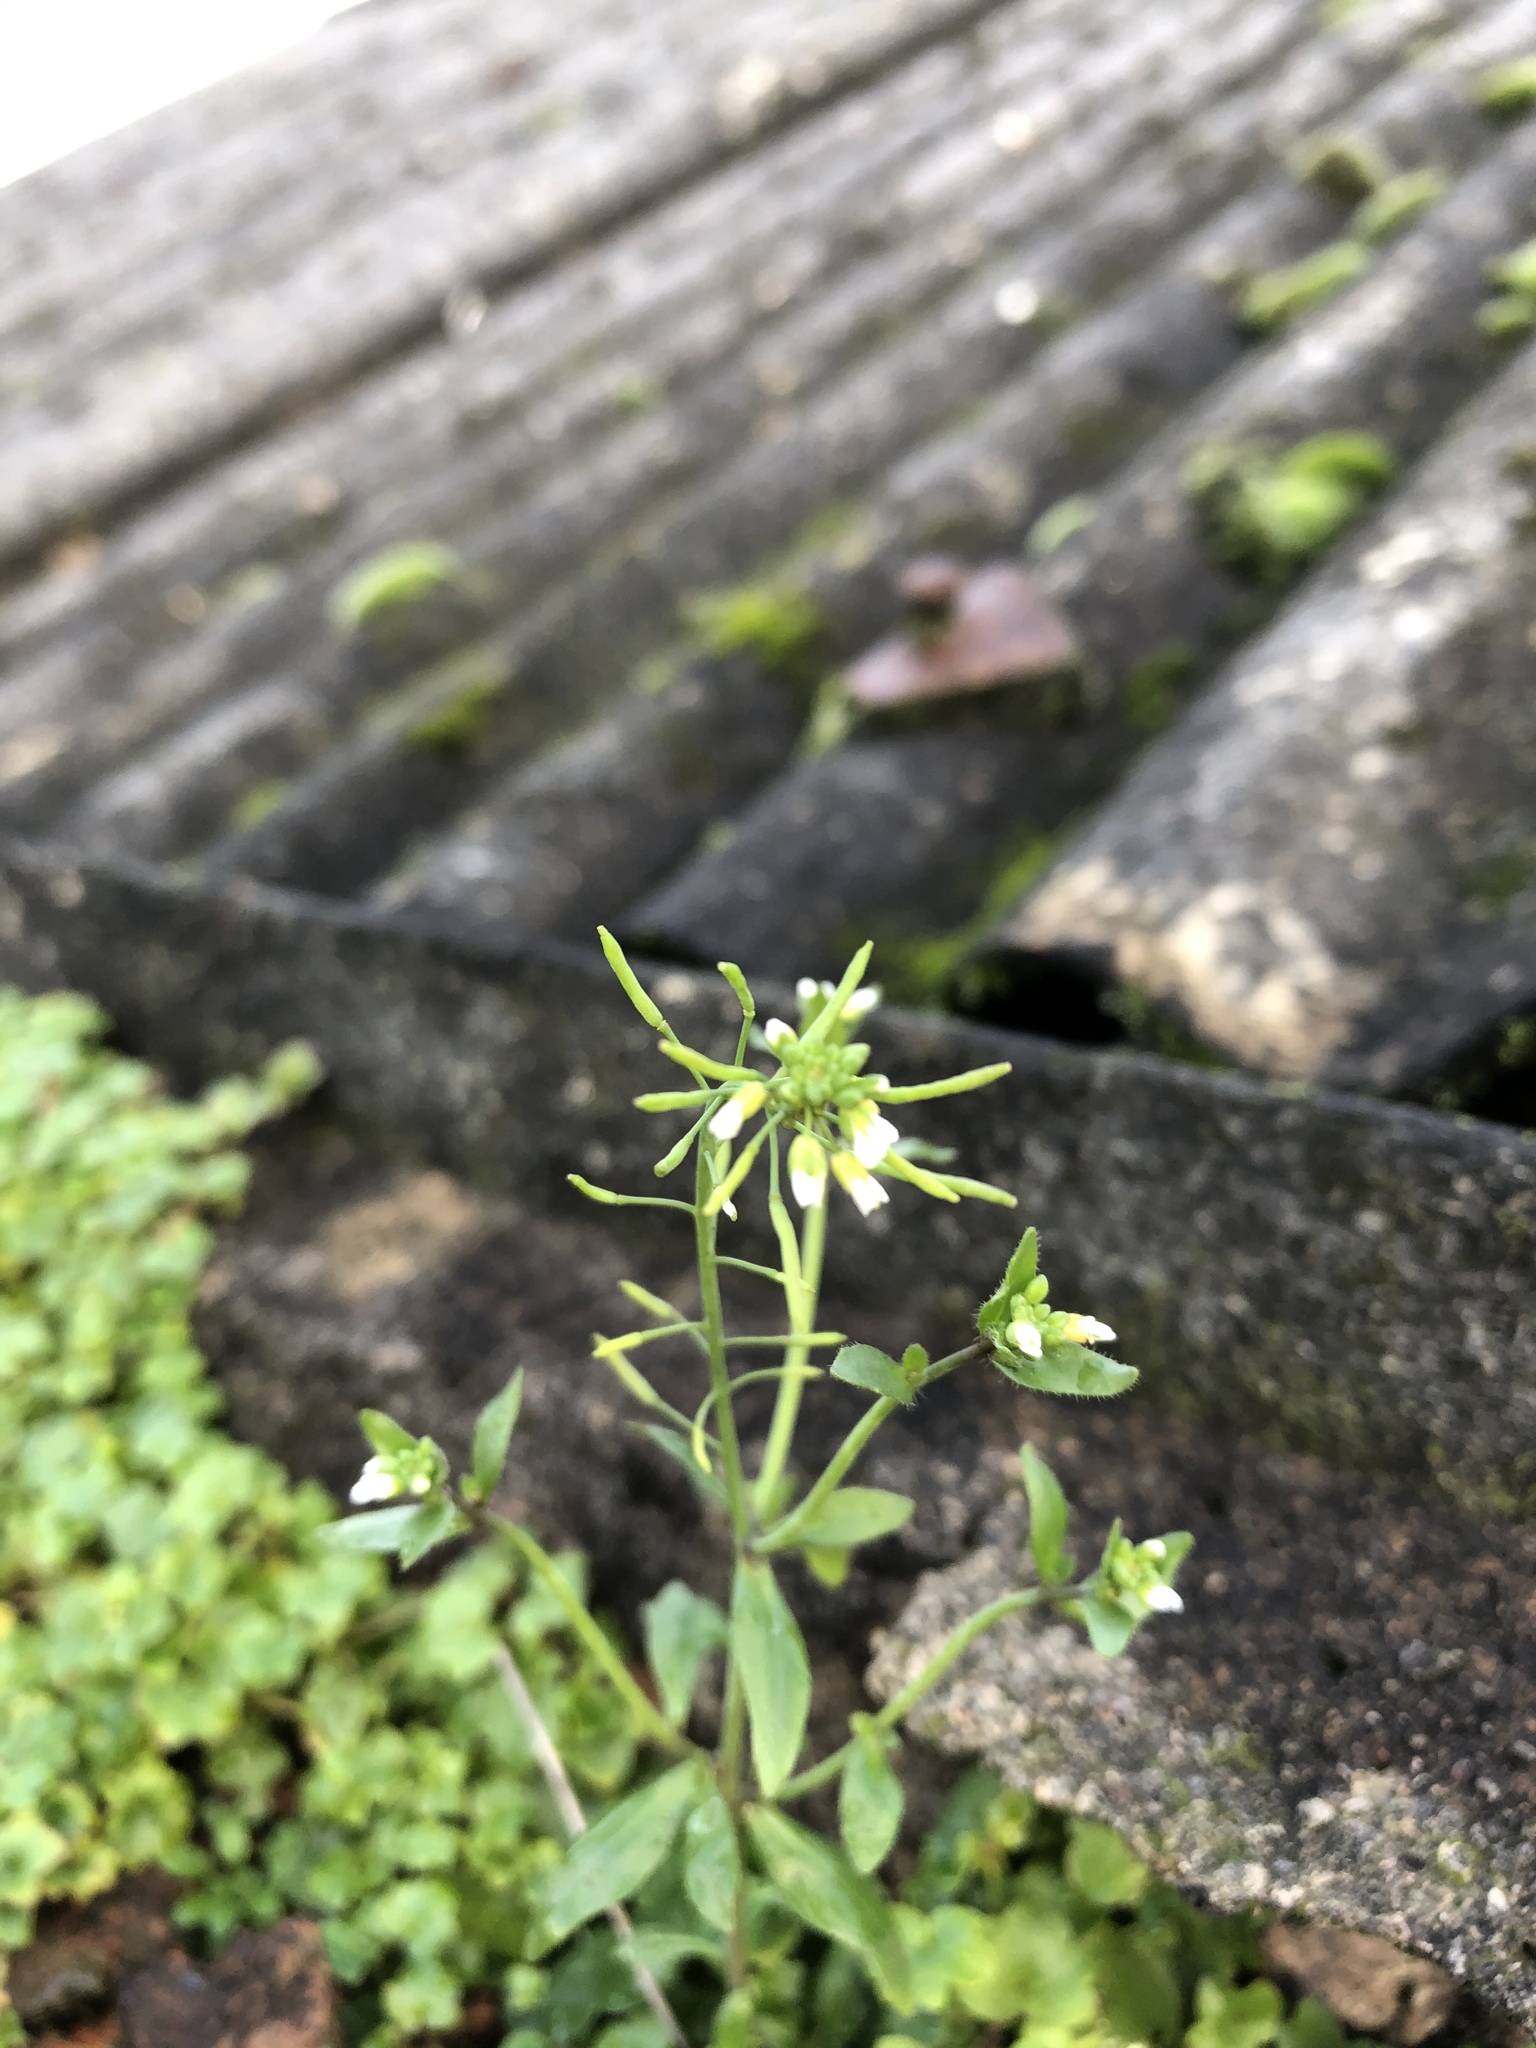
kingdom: Plantae
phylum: Tracheophyta
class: Magnoliopsida
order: Brassicales
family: Brassicaceae
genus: Arabidopsis
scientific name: Arabidopsis thaliana
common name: Thale cress
